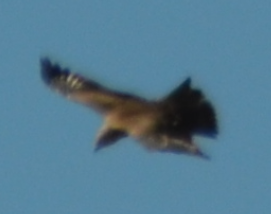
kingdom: Animalia
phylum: Chordata
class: Aves
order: Accipitriformes
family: Accipitridae
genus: Milvus
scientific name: Milvus migrans
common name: Black kite
